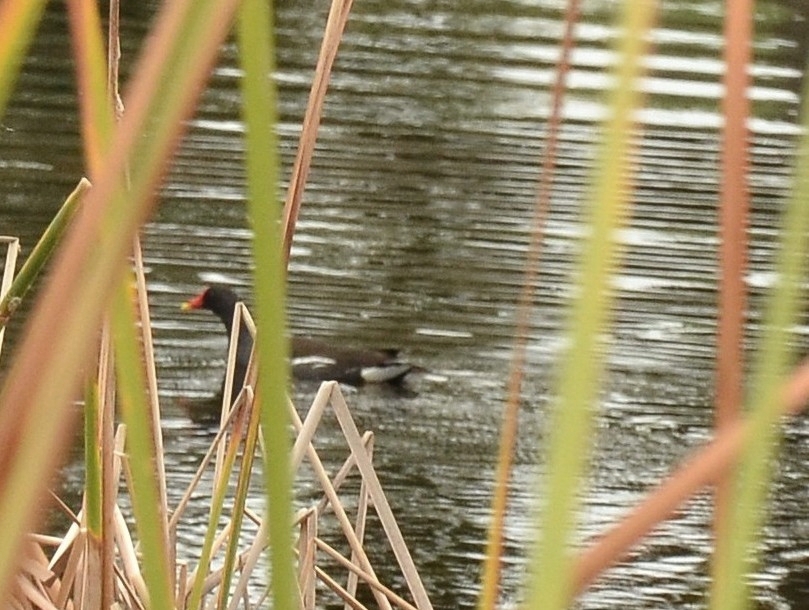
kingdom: Animalia
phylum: Chordata
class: Aves
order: Gruiformes
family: Rallidae
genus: Gallinula
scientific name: Gallinula chloropus
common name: Common moorhen
